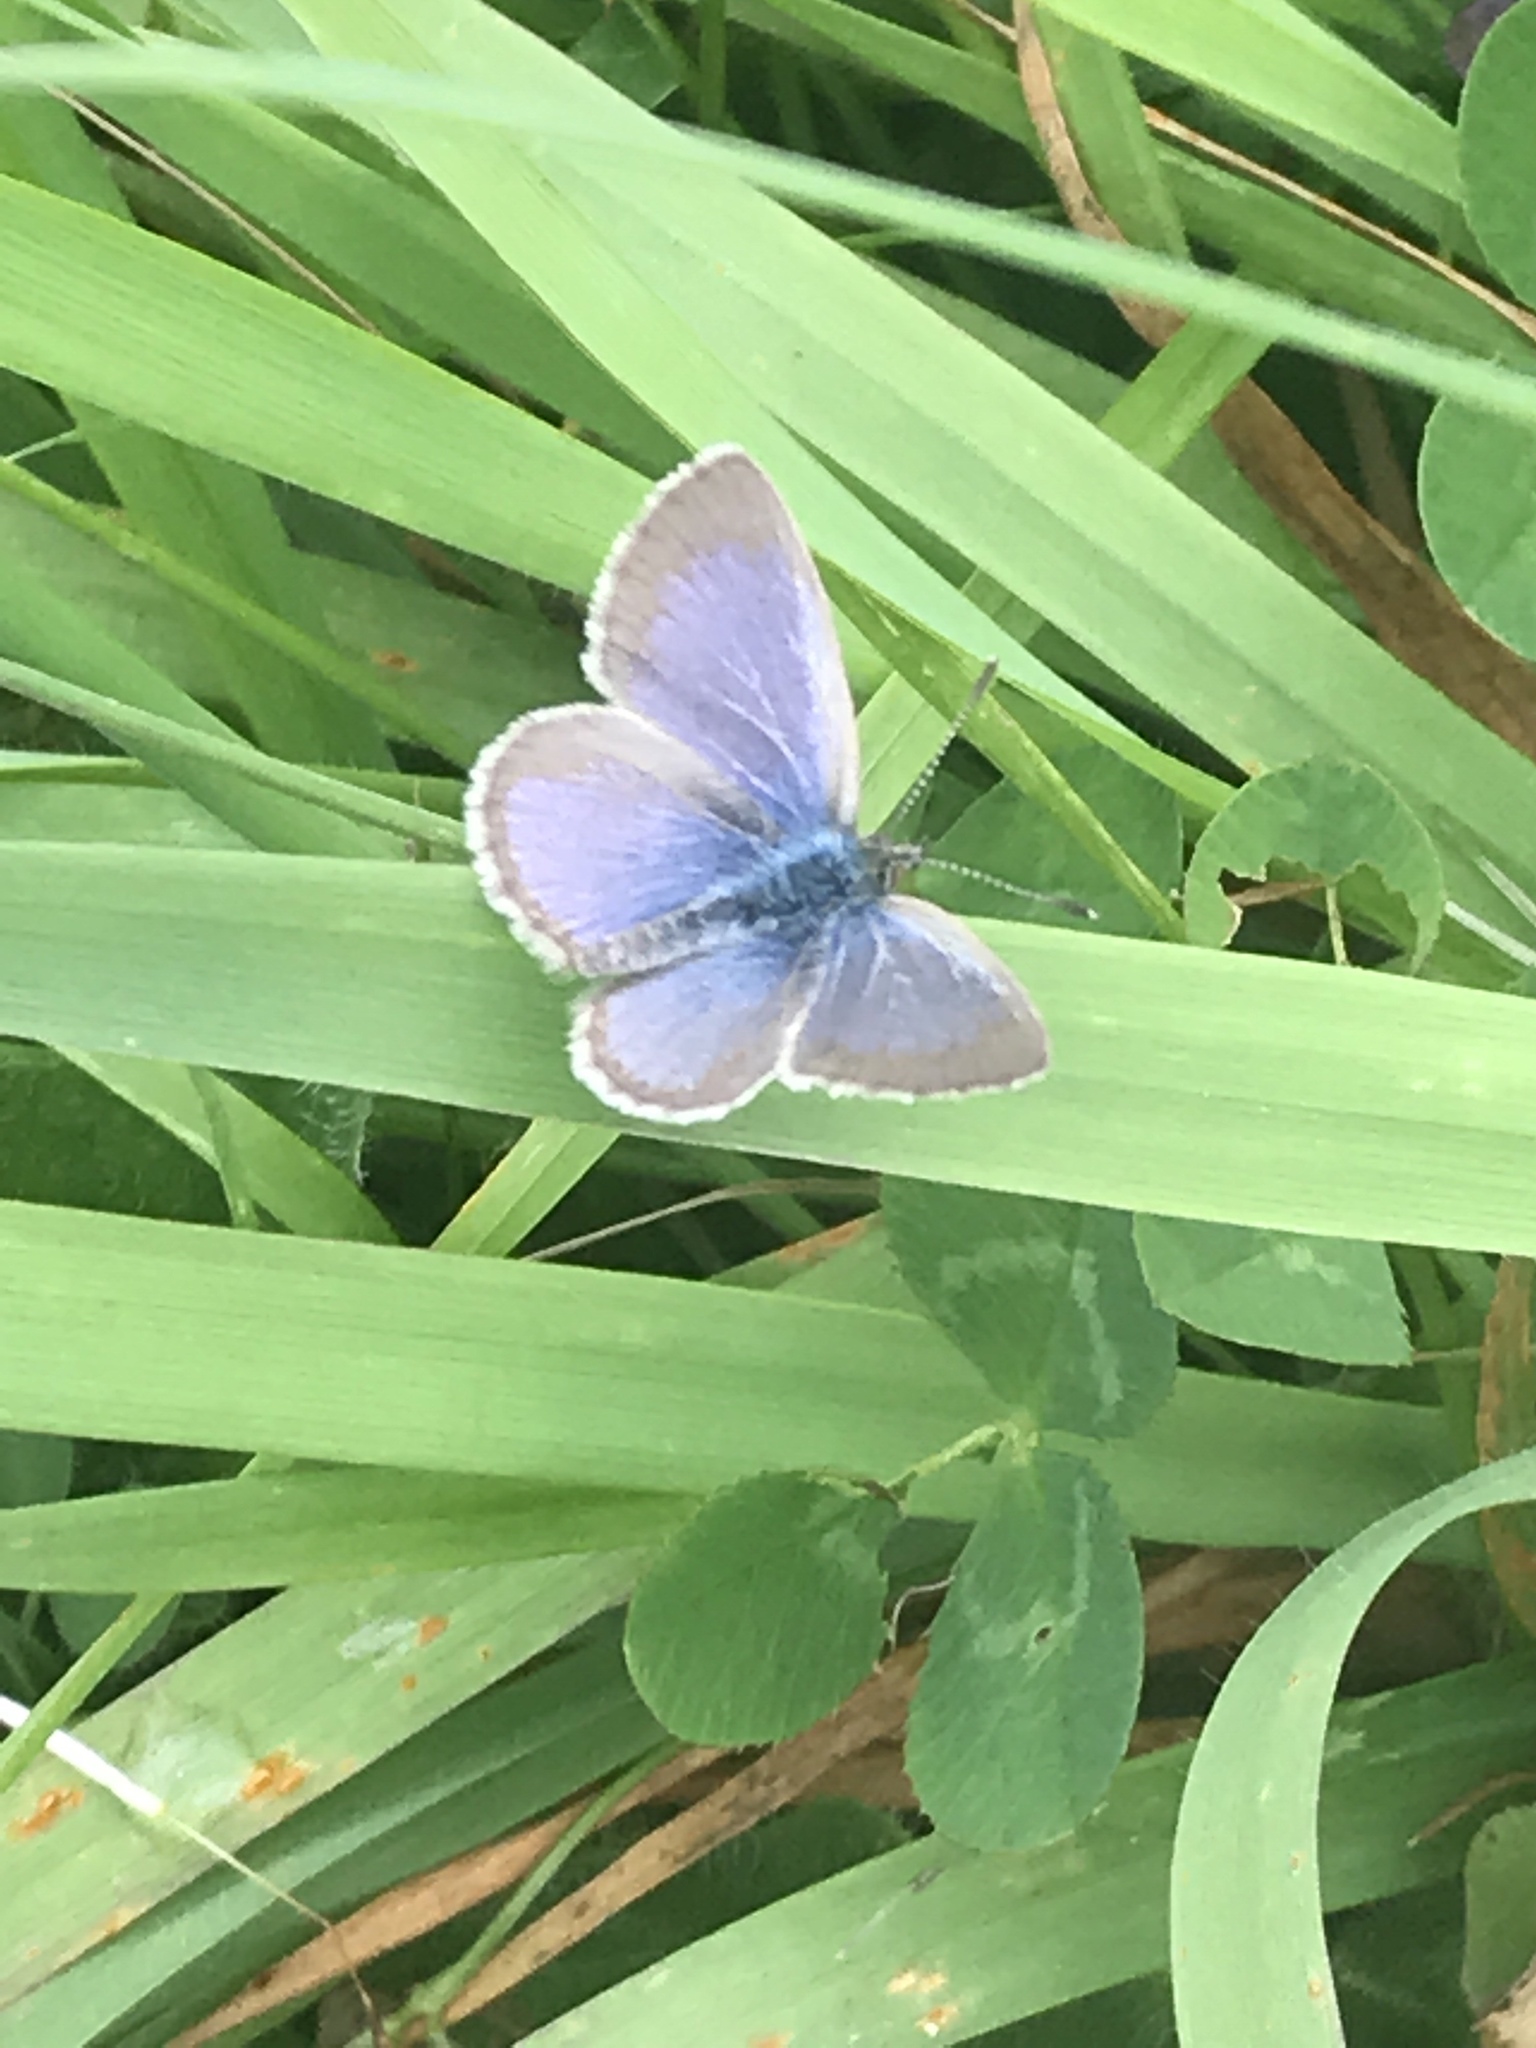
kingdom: Animalia
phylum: Arthropoda
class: Insecta
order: Lepidoptera
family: Lycaenidae
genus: Zizina
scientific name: Zizina labradus
